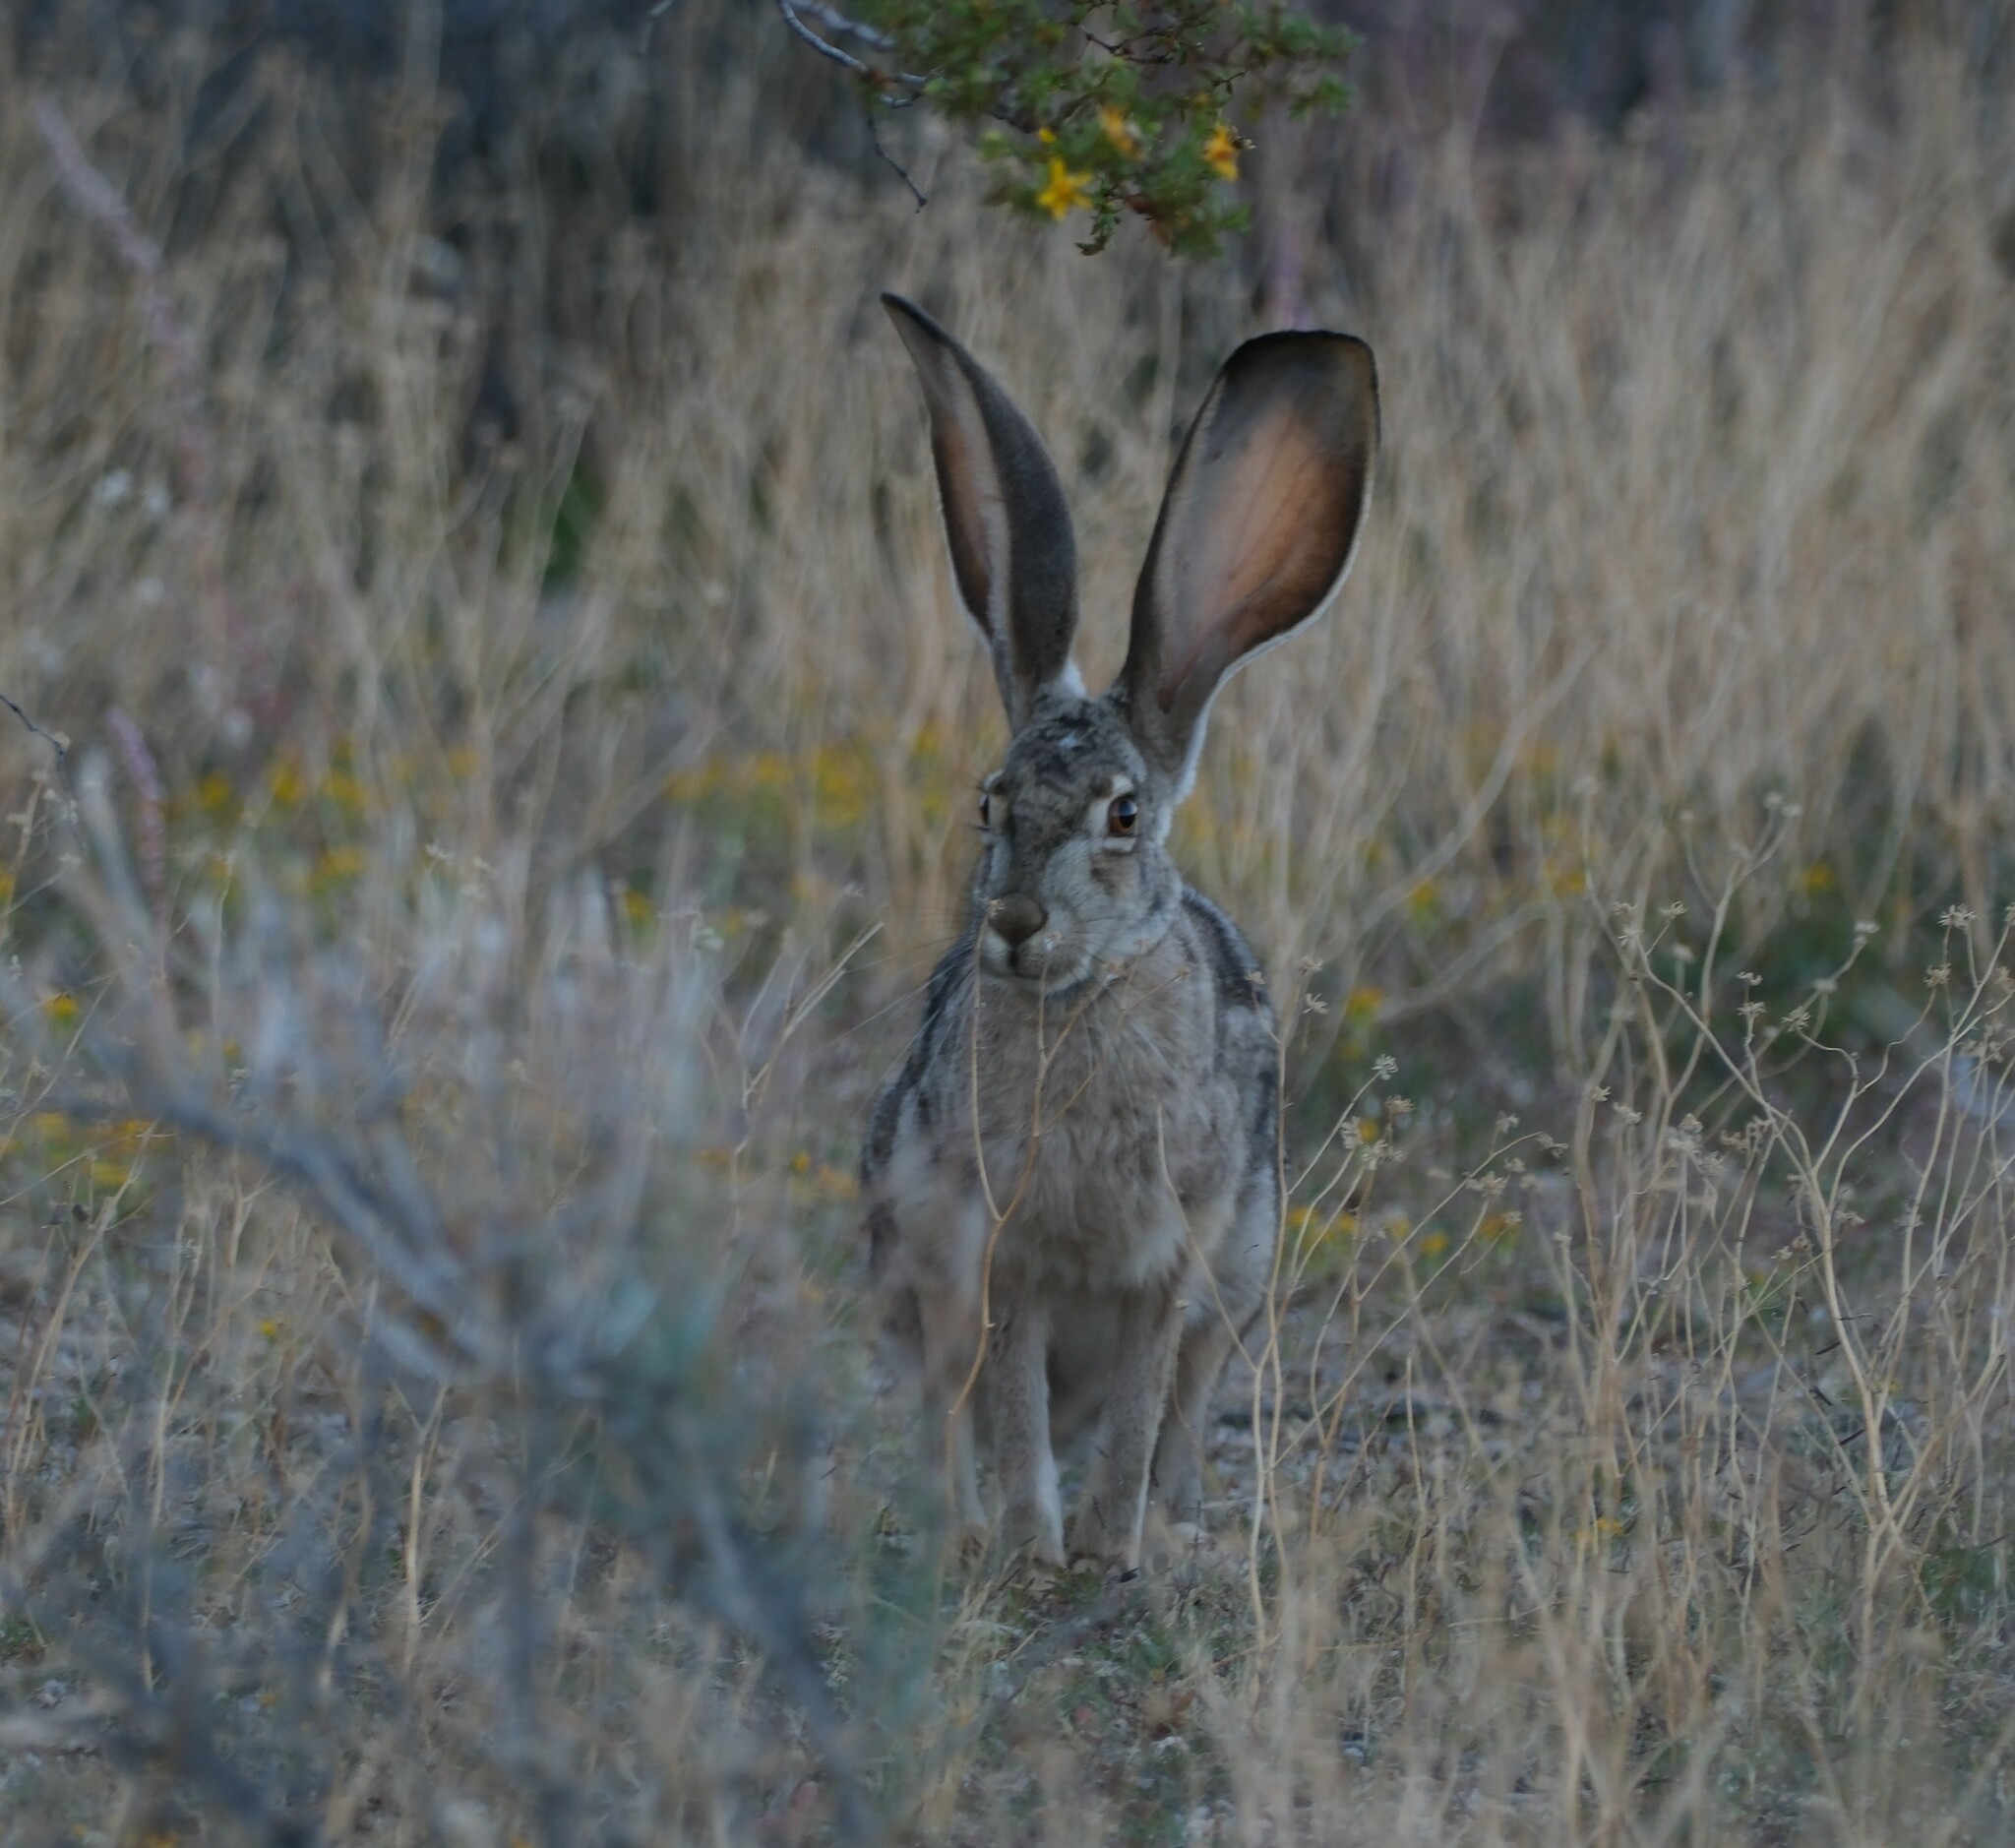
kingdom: Animalia
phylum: Chordata
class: Mammalia
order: Lagomorpha
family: Leporidae
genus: Lepus
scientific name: Lepus californicus
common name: Black-tailed jackrabbit
